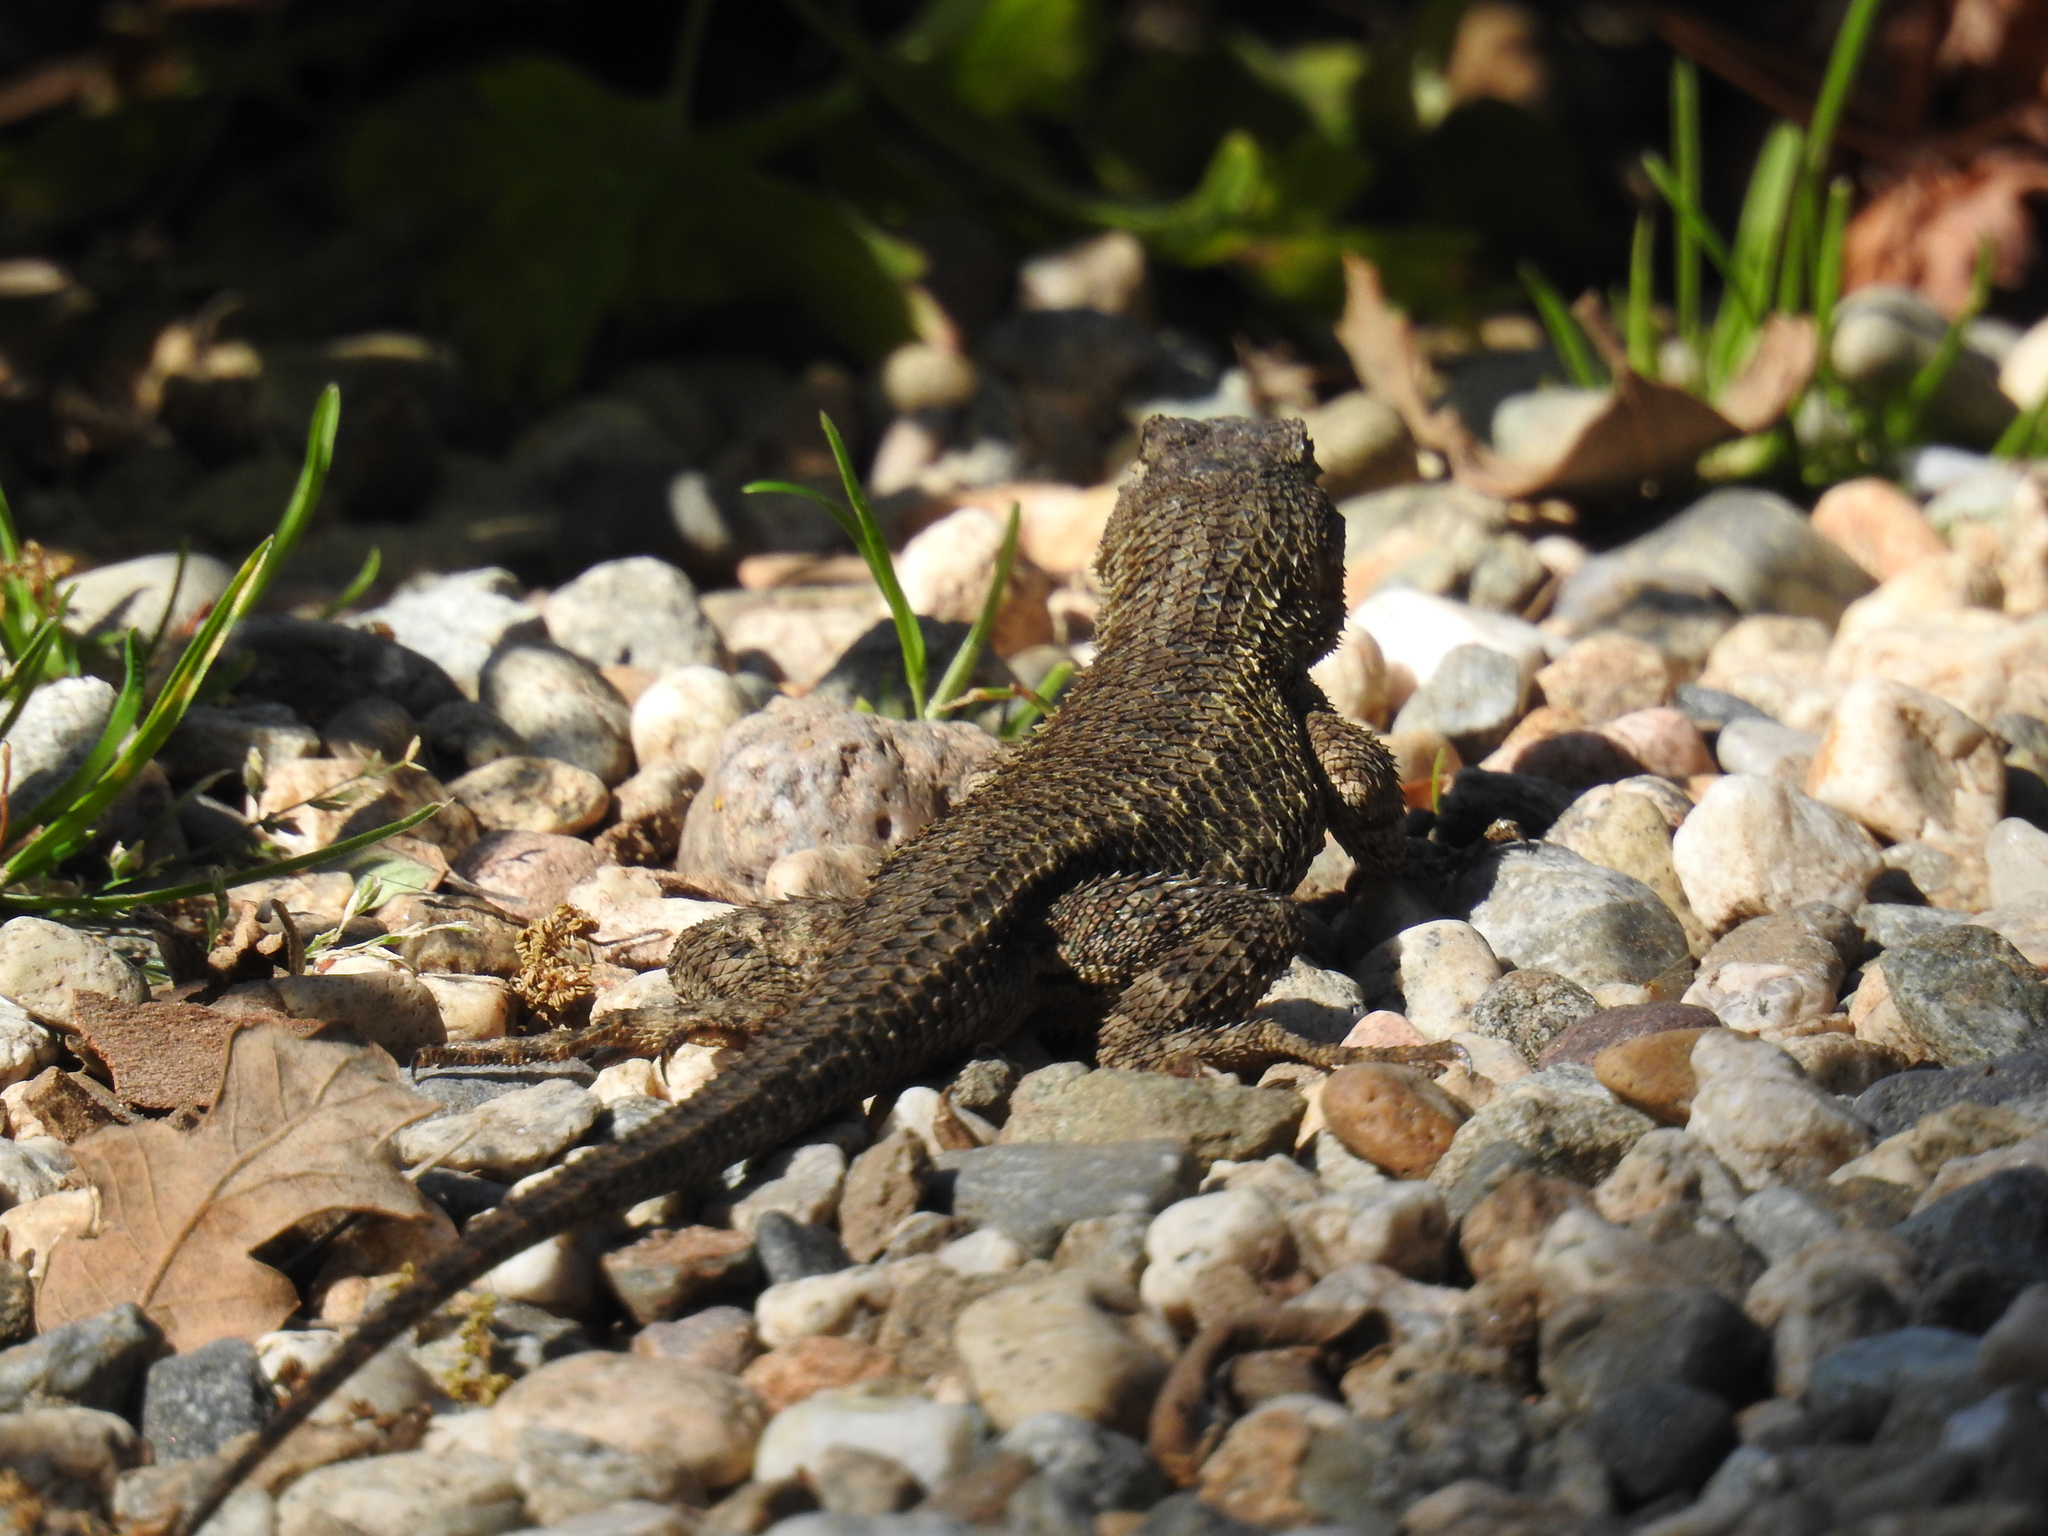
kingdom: Animalia
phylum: Chordata
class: Squamata
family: Phrynosomatidae
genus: Sceloporus
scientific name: Sceloporus occidentalis
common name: Western fence lizard
